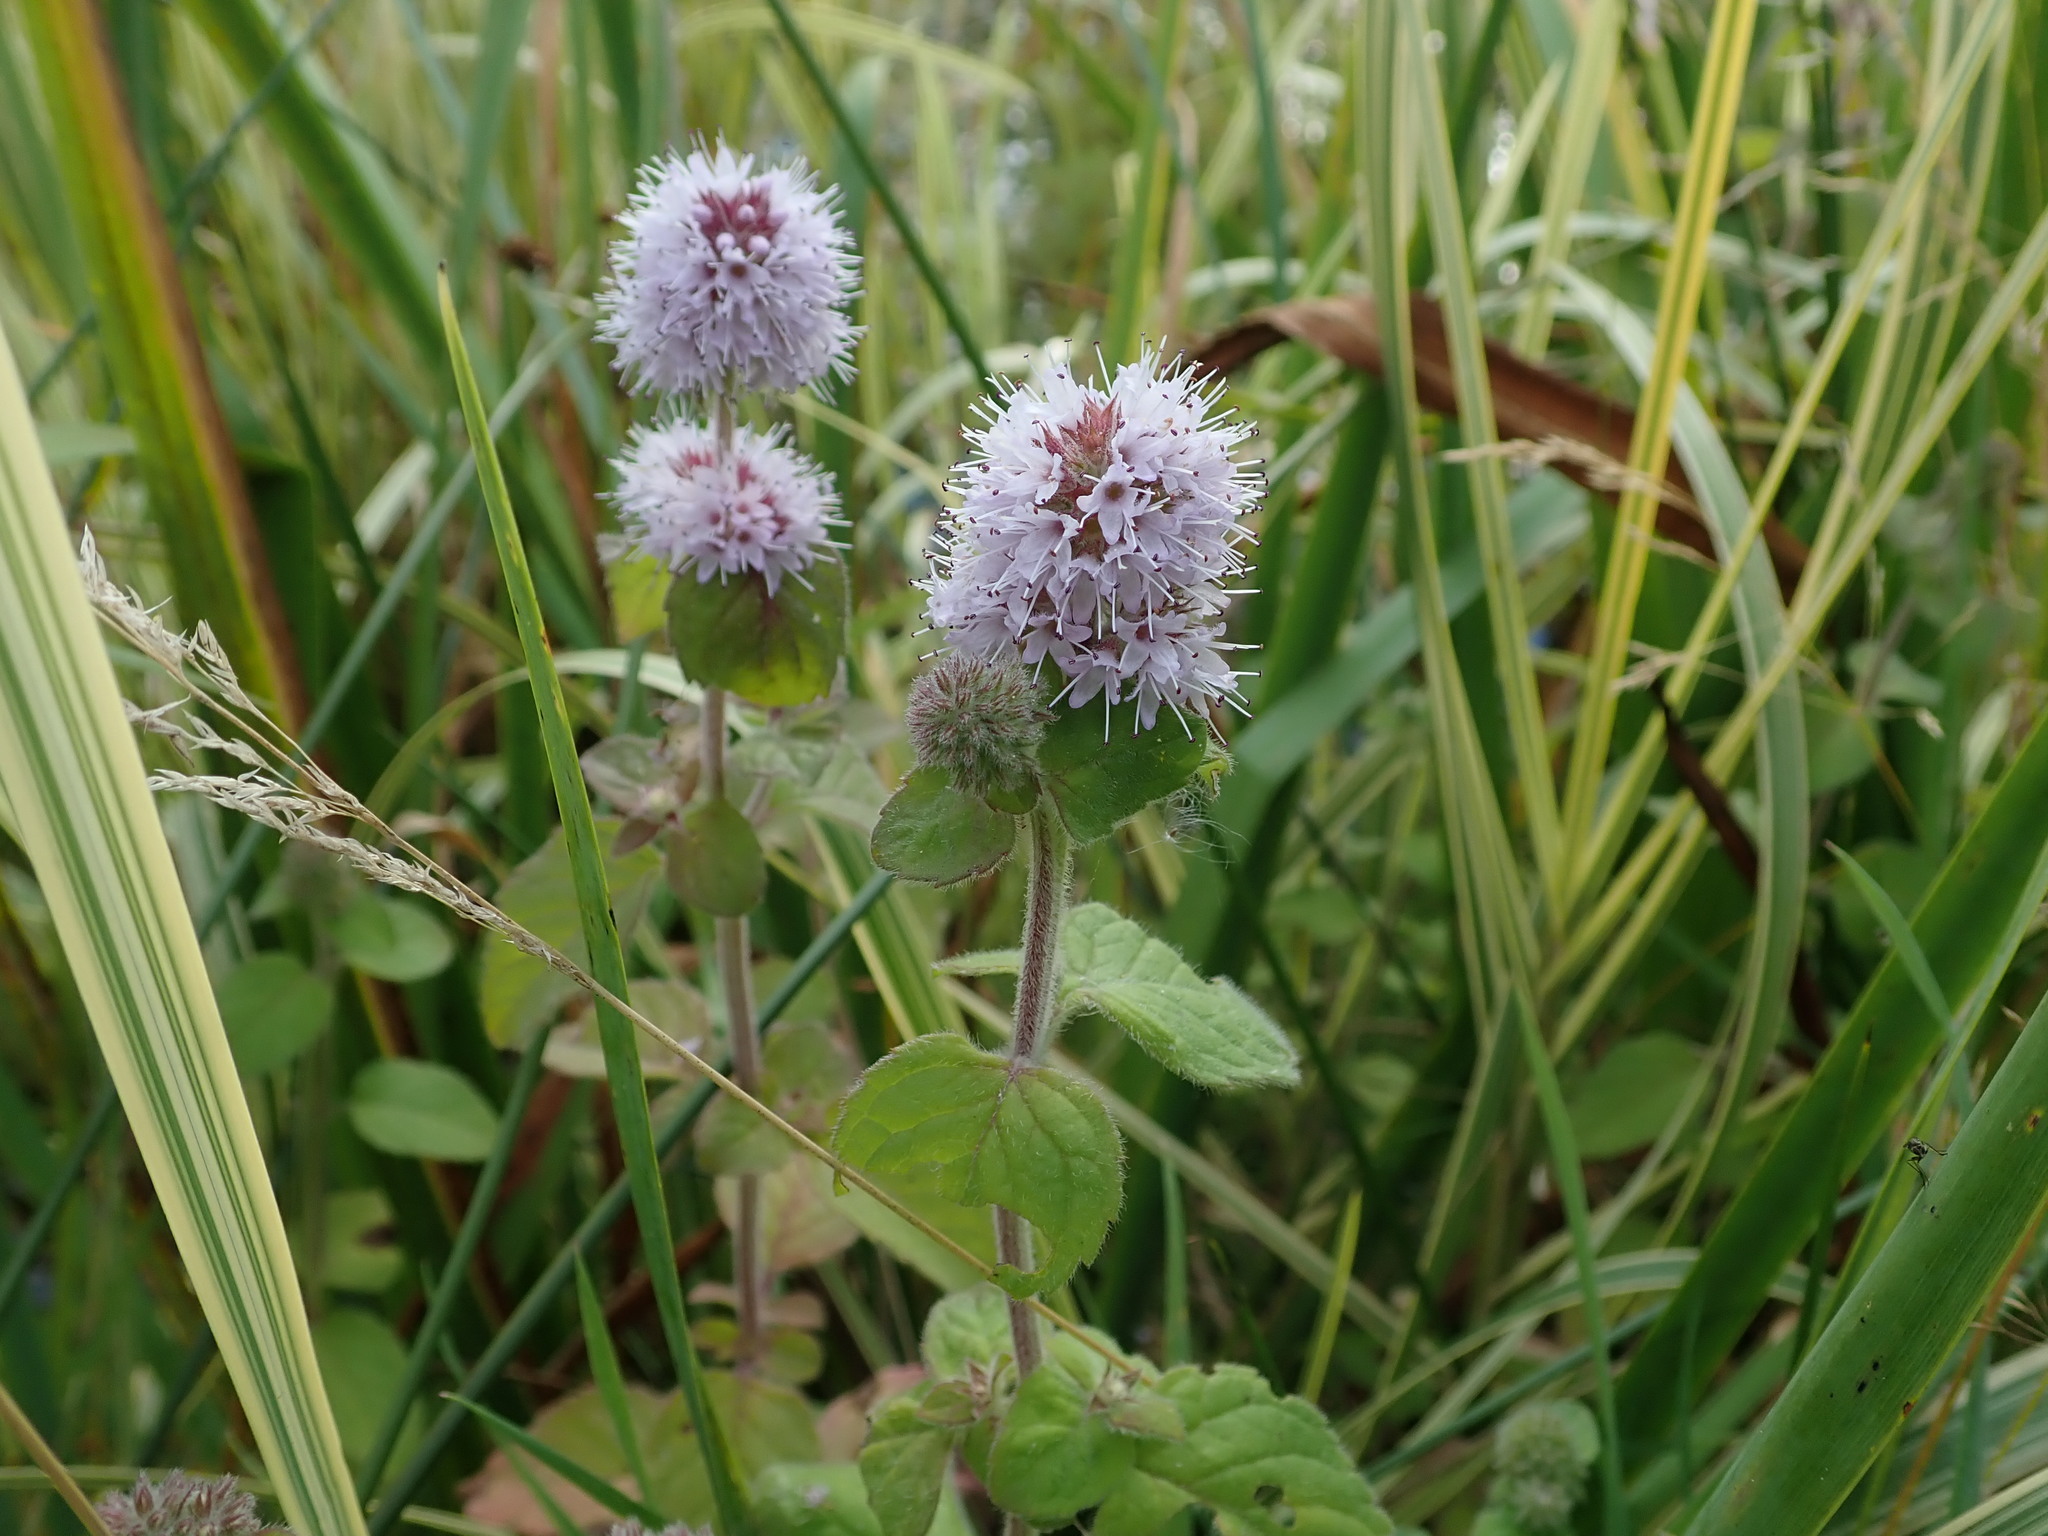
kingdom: Plantae
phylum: Tracheophyta
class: Magnoliopsida
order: Lamiales
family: Lamiaceae
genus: Mentha
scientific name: Mentha aquatica
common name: Water mint
